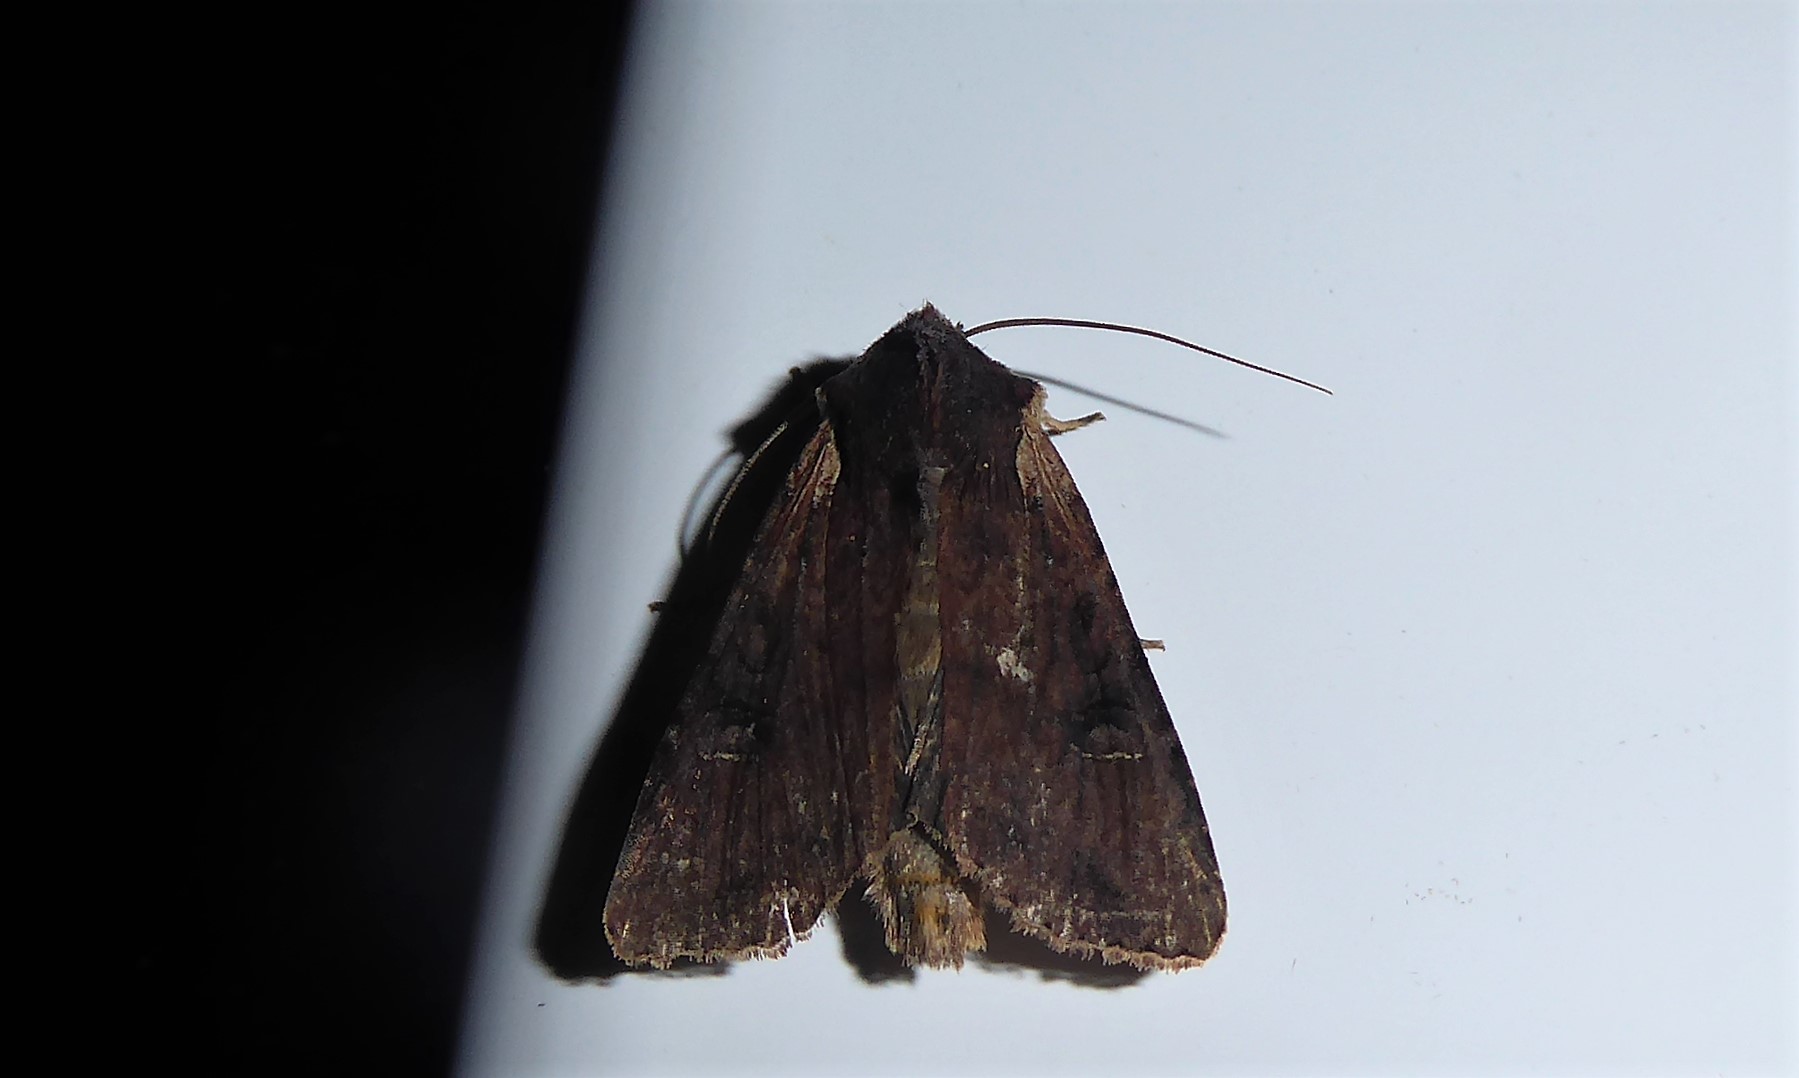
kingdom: Animalia
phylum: Arthropoda
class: Insecta
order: Lepidoptera
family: Noctuidae
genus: Ichneutica
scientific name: Ichneutica omoplaca
